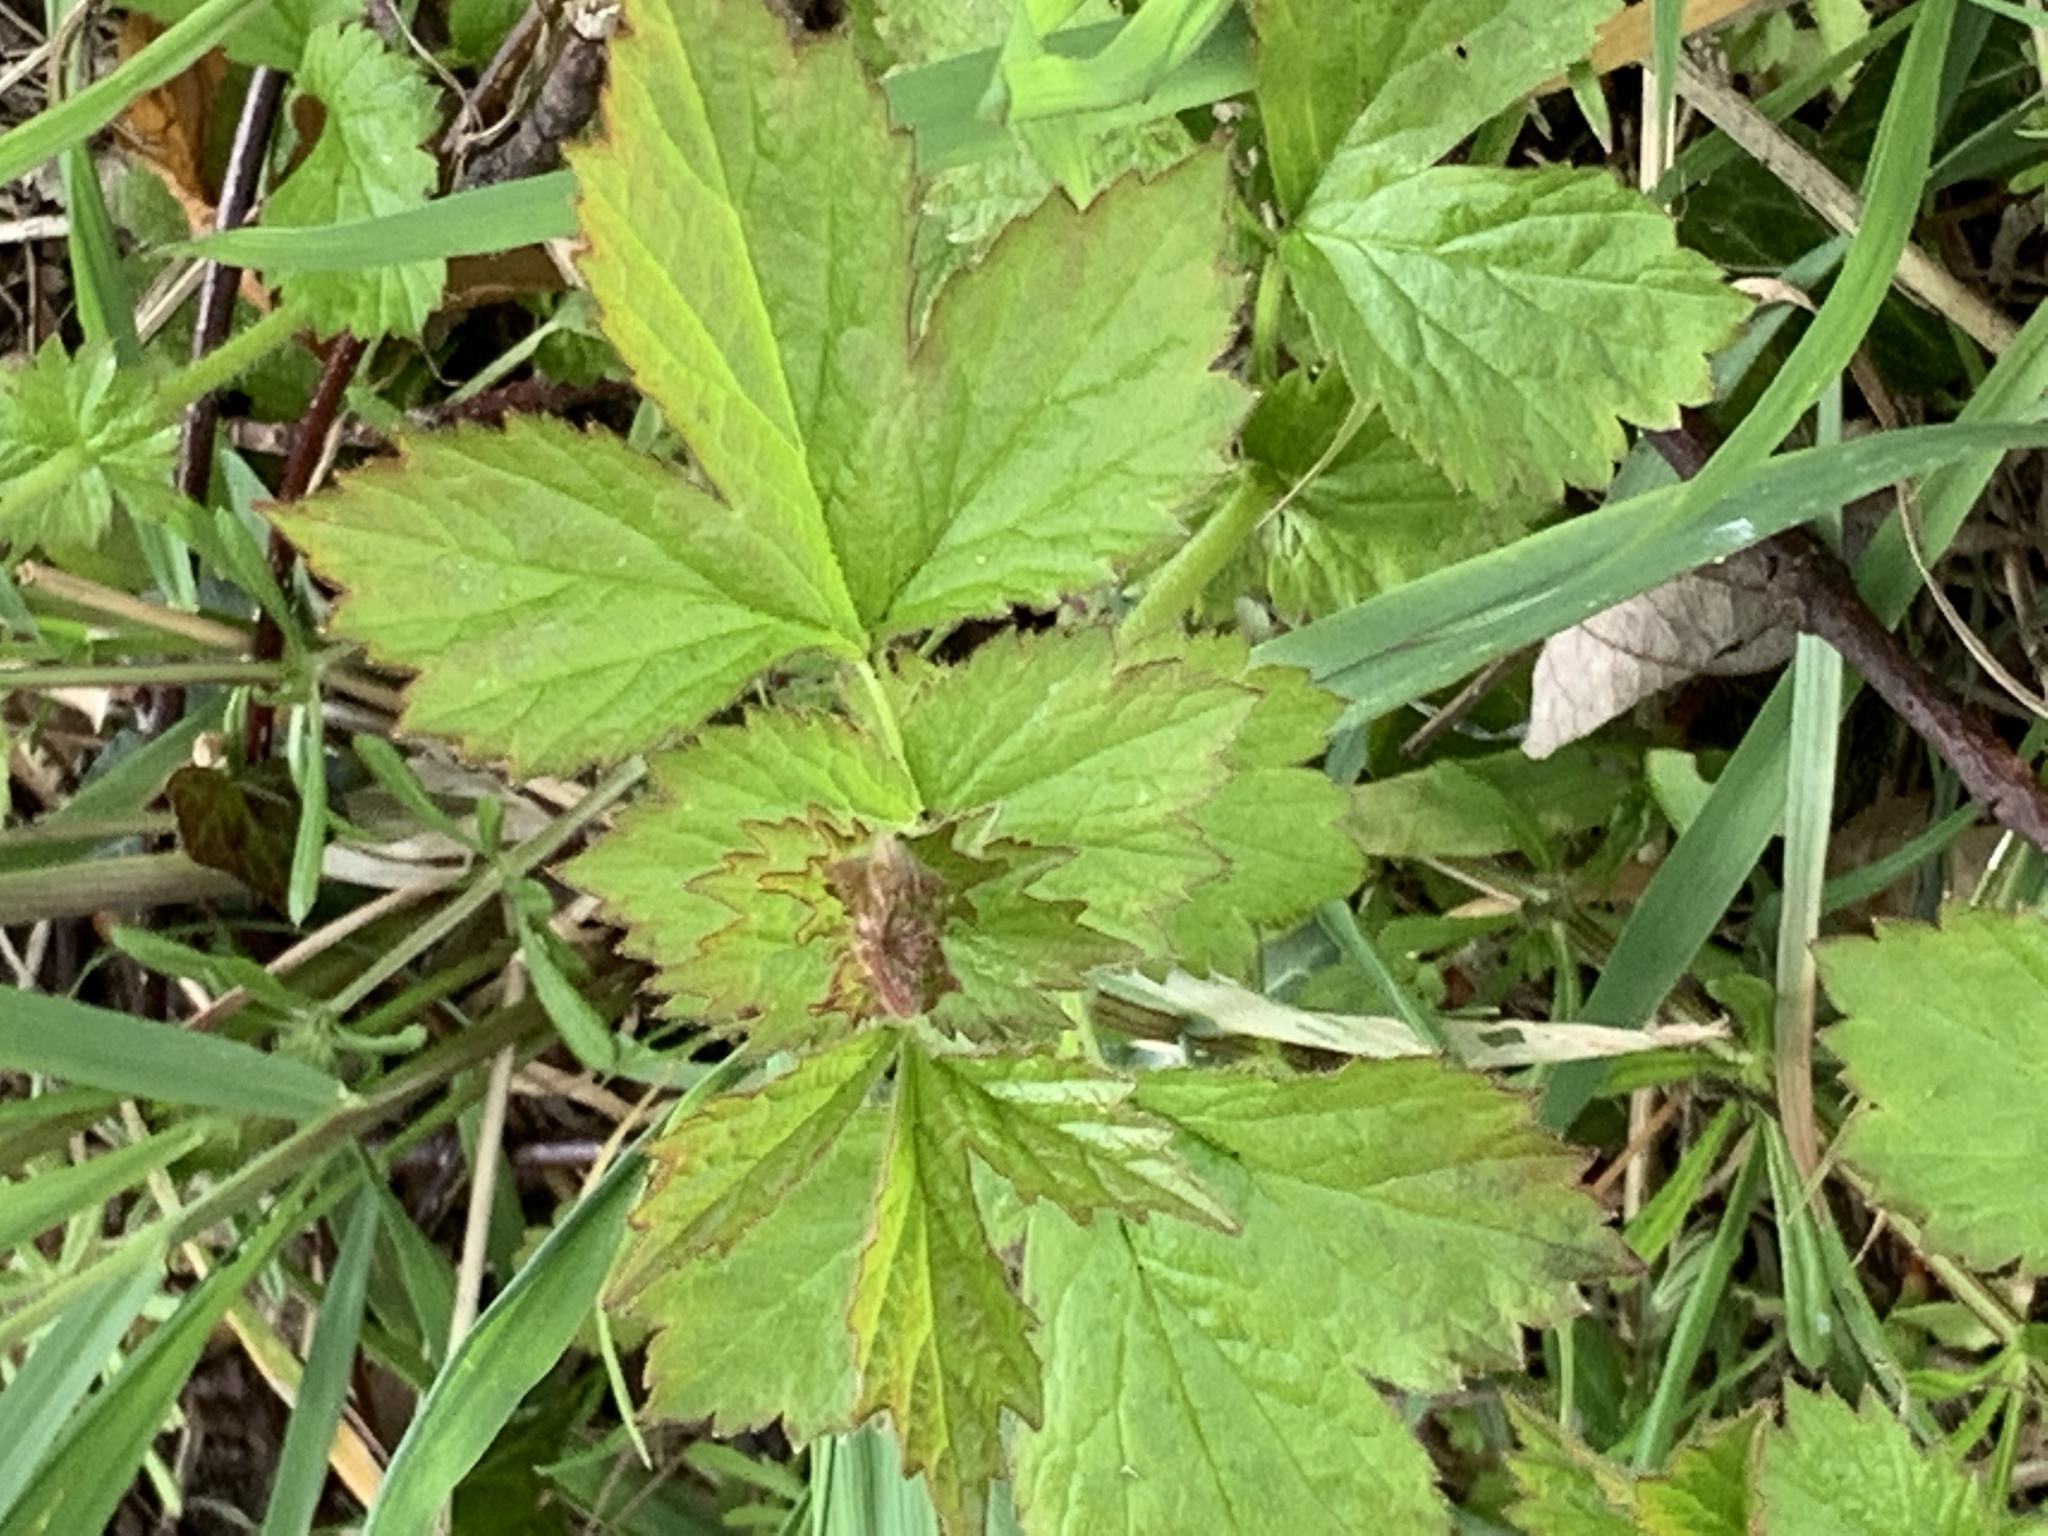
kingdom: Plantae
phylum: Tracheophyta
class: Magnoliopsida
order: Rosales
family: Rosaceae
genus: Geum
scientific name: Geum urbanum
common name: Wood avens
